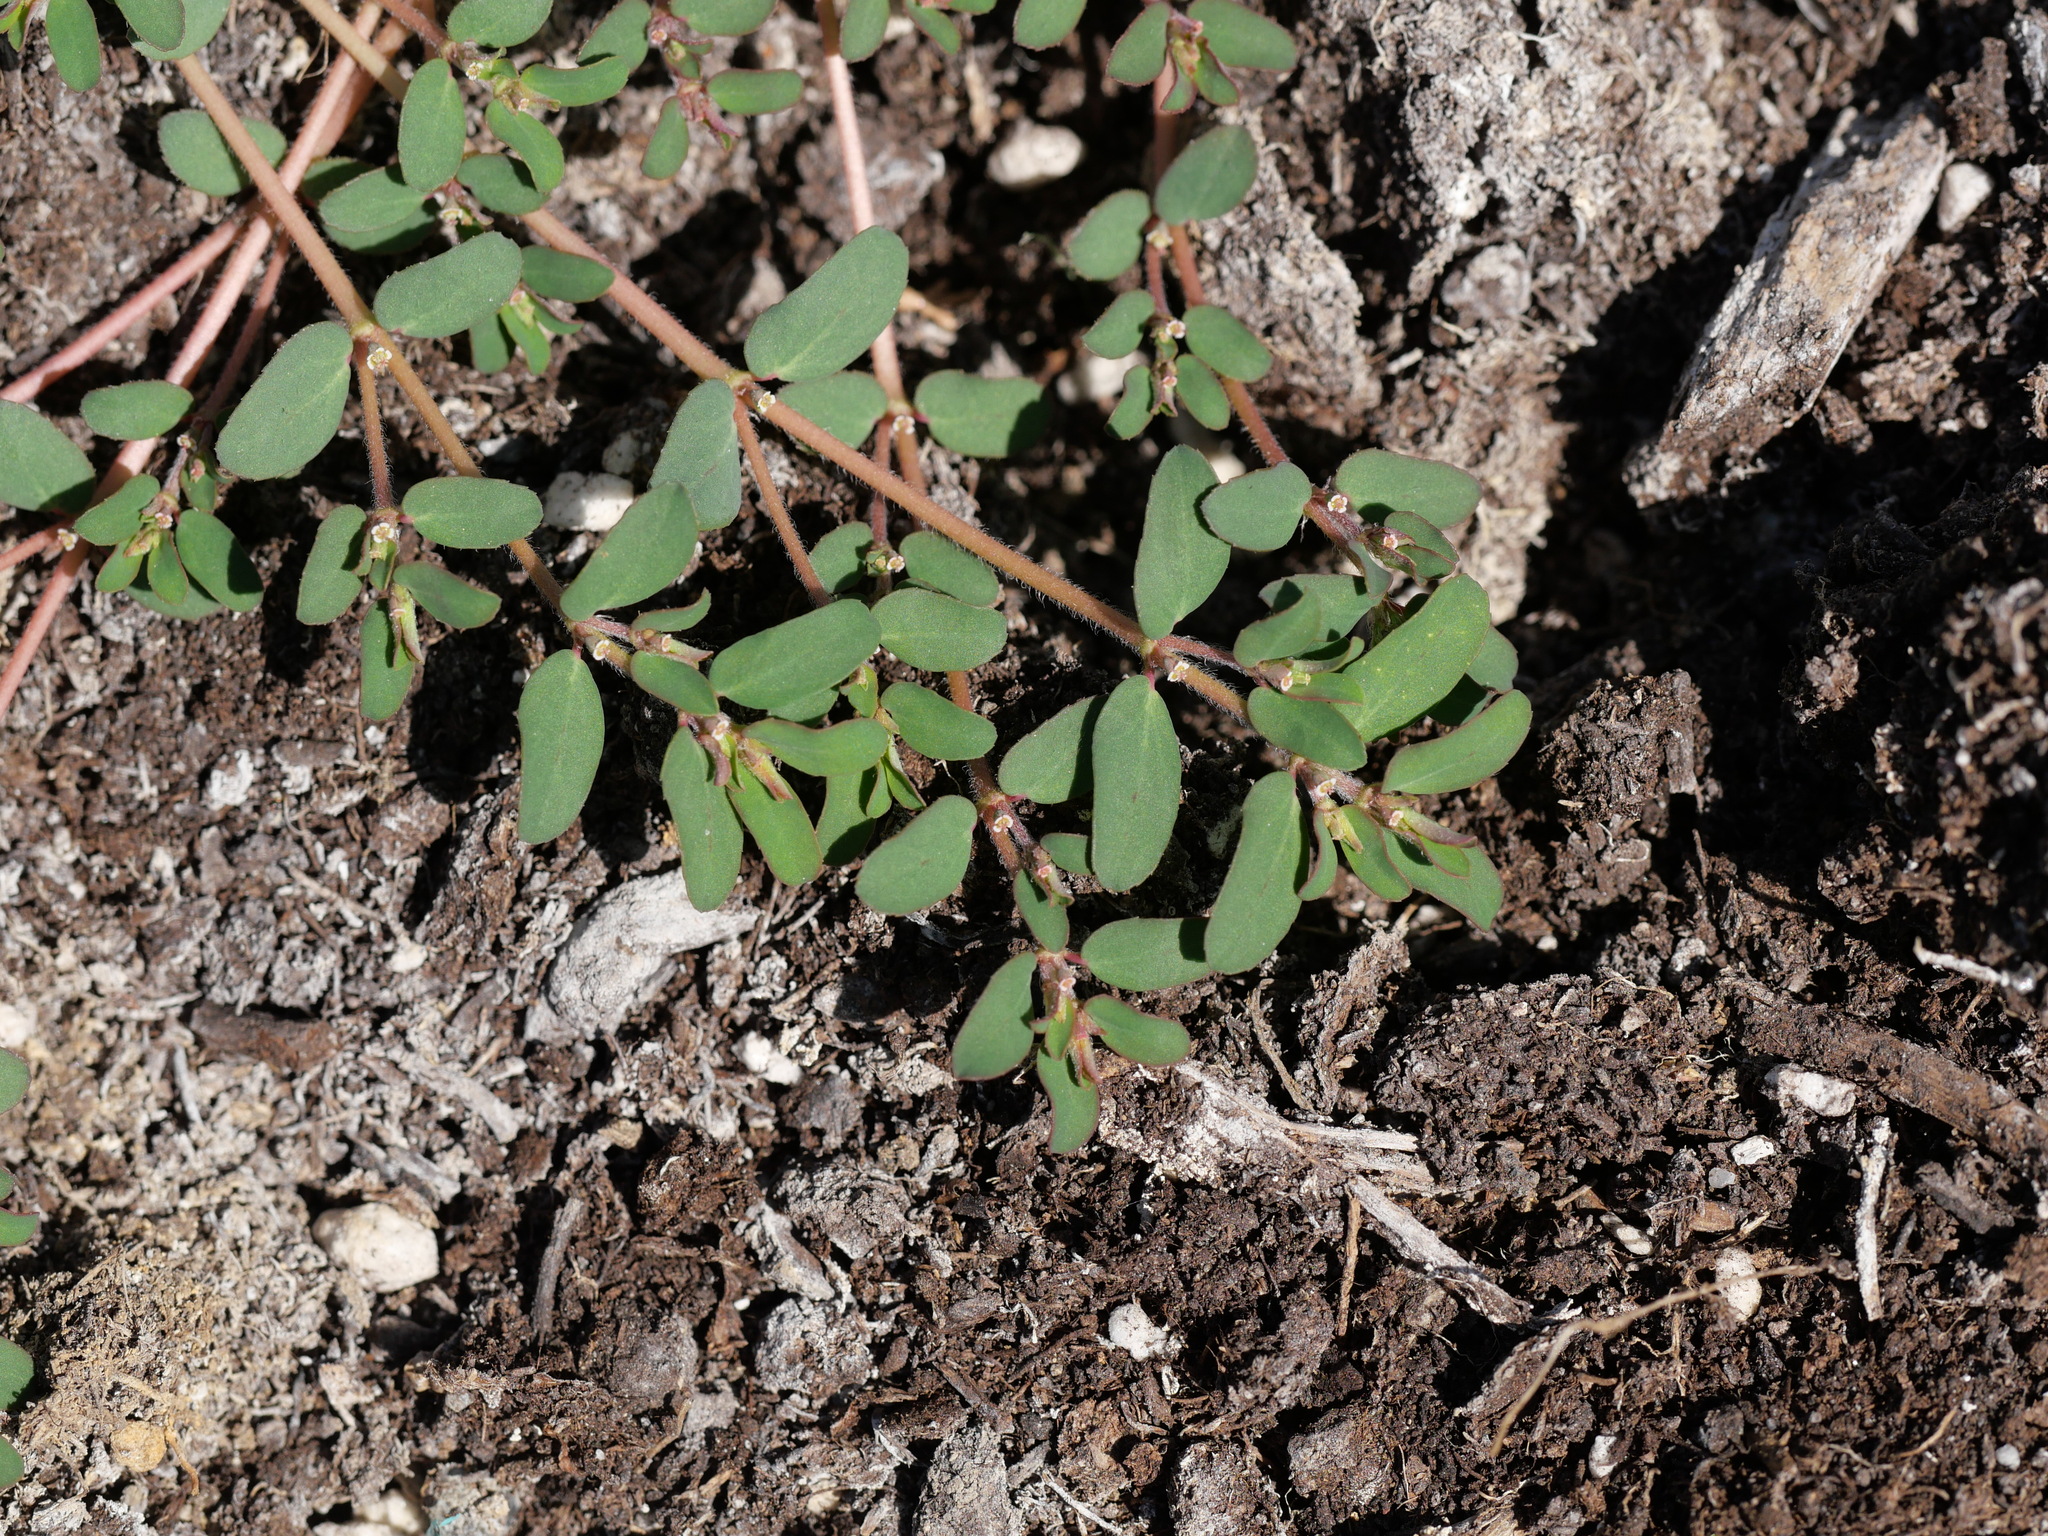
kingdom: Plantae
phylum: Tracheophyta
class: Magnoliopsida
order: Malpighiales
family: Euphorbiaceae
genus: Euphorbia
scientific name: Euphorbia maculata
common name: Spotted spurge
